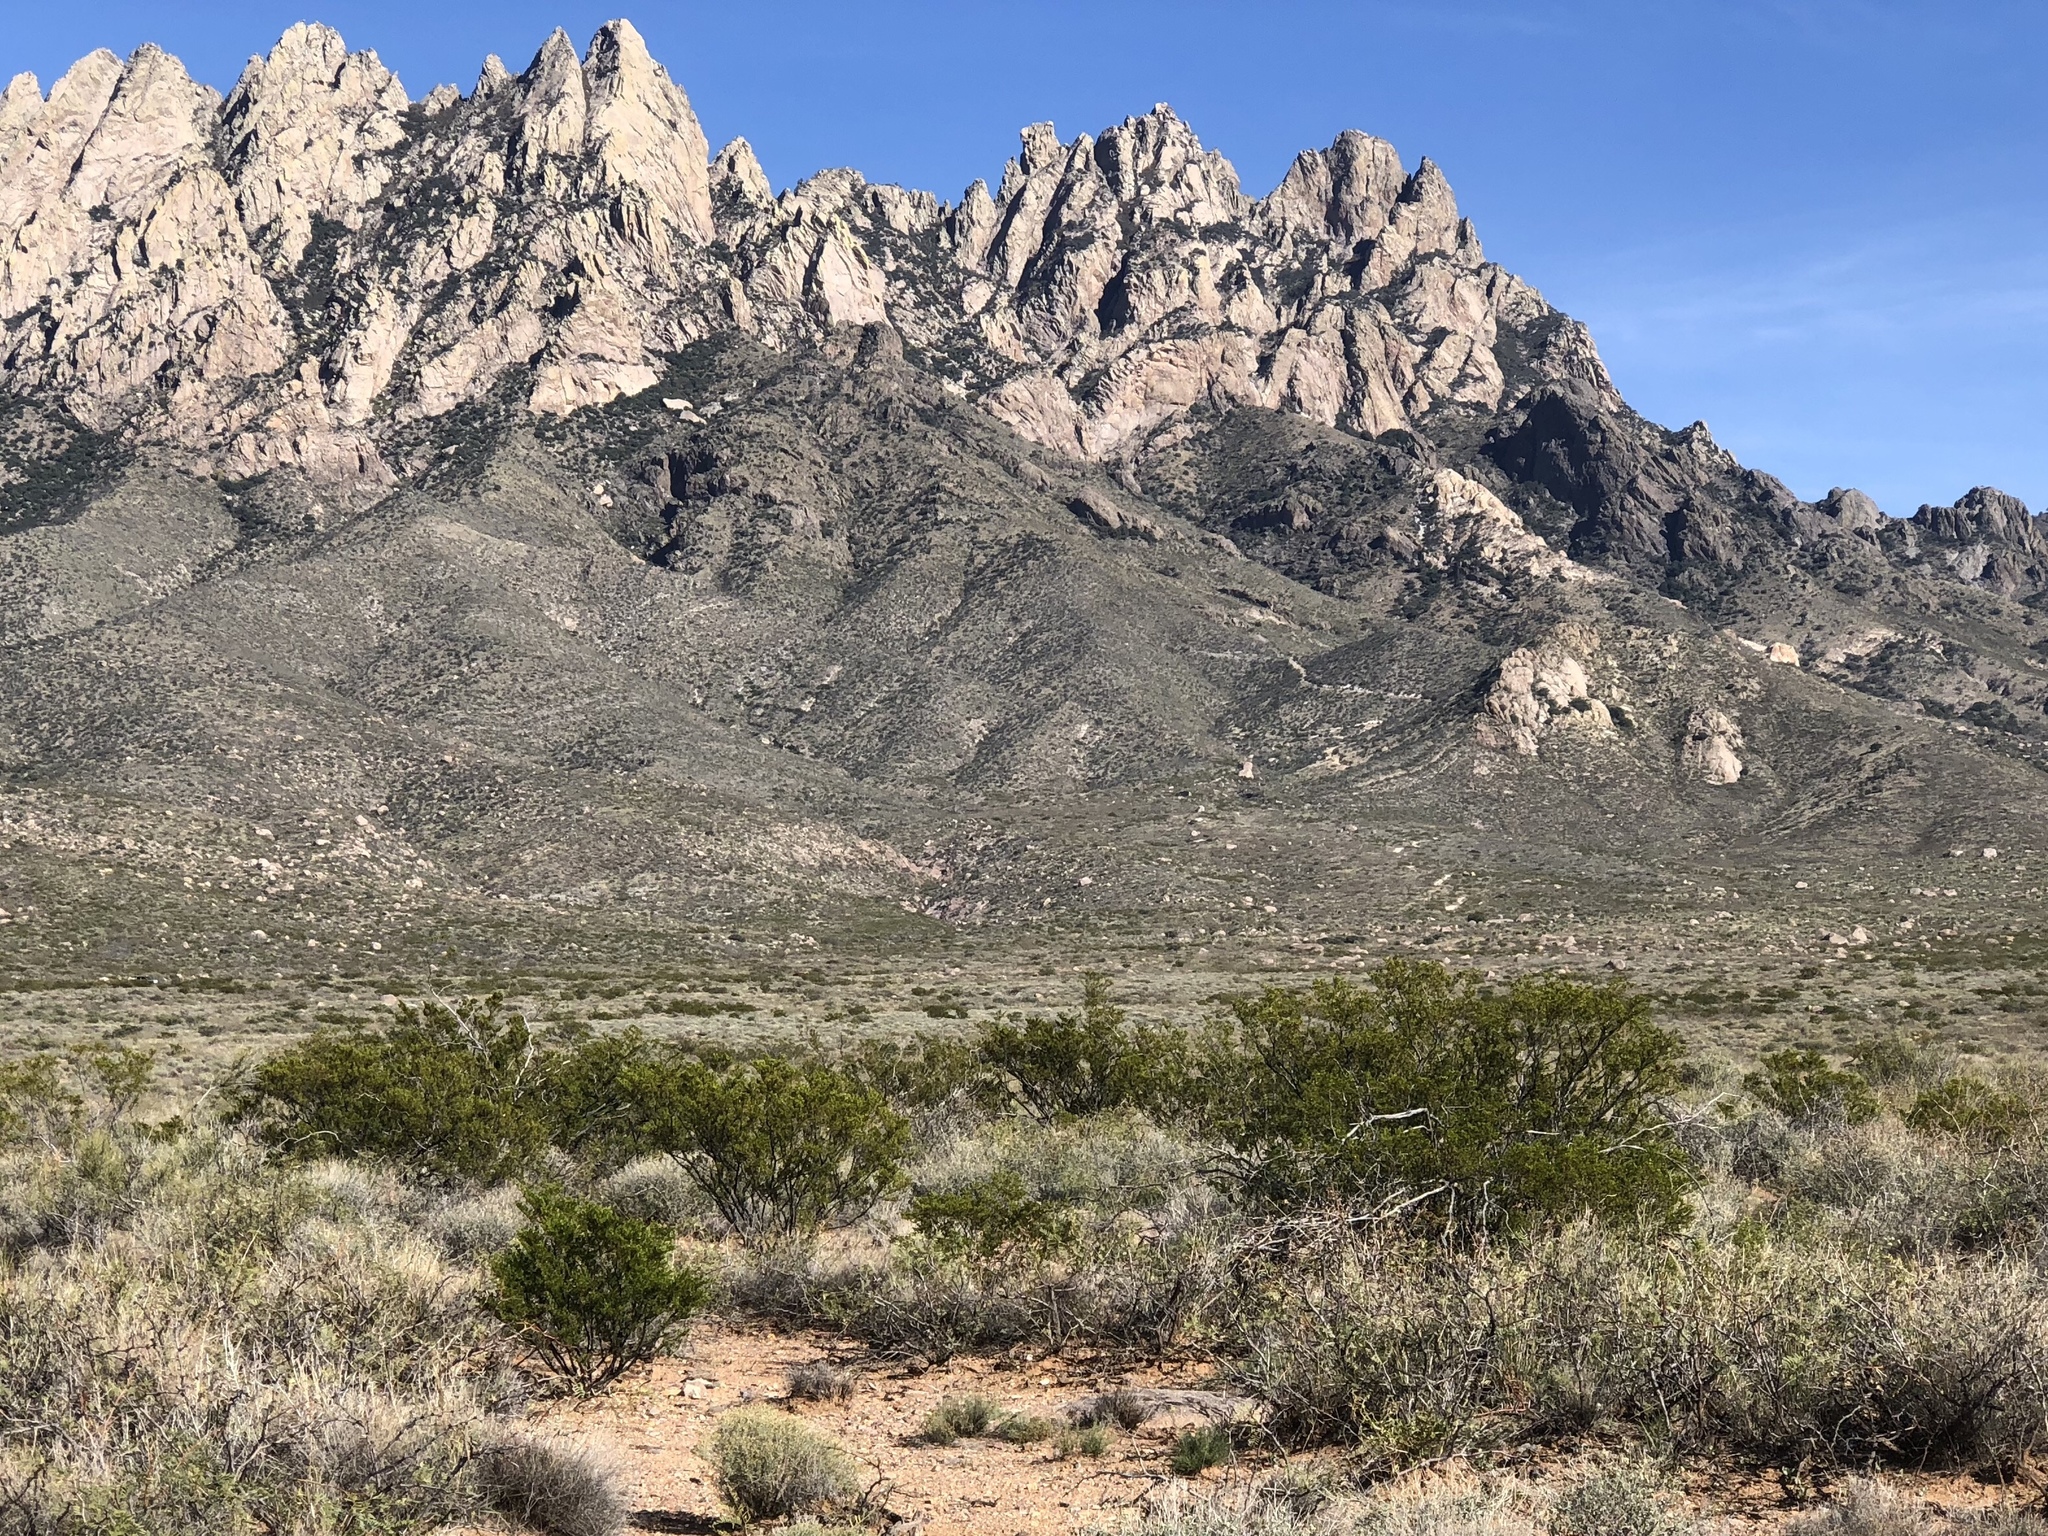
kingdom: Plantae
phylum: Tracheophyta
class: Magnoliopsida
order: Zygophyllales
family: Zygophyllaceae
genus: Larrea
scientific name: Larrea tridentata
